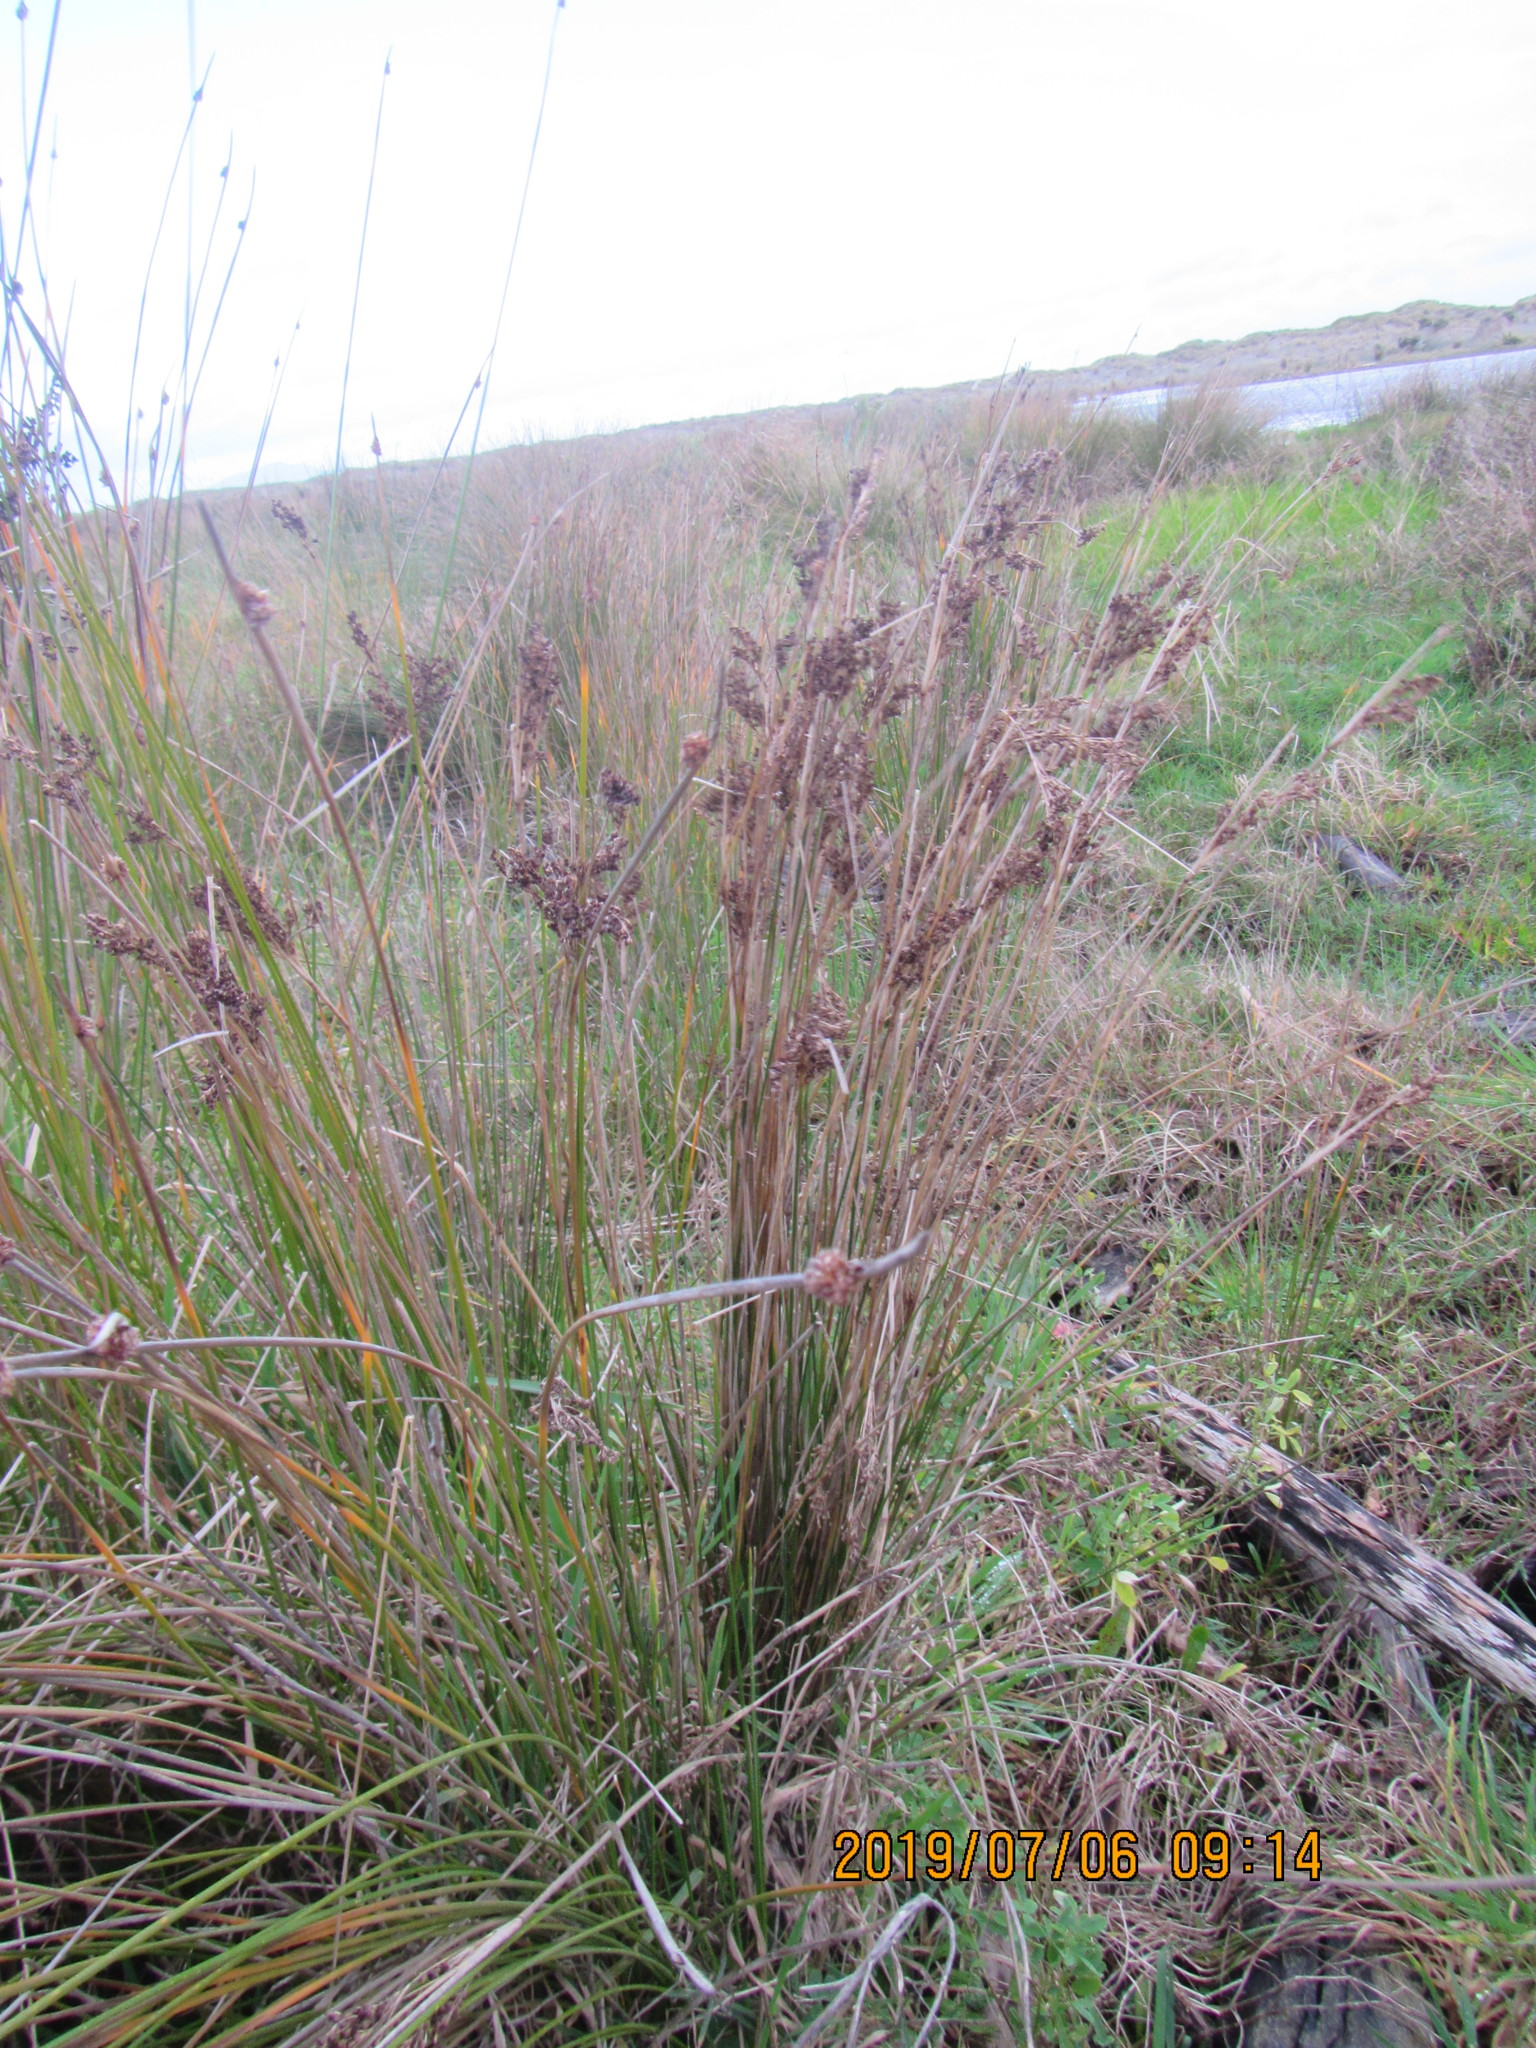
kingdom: Plantae
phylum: Tracheophyta
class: Liliopsida
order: Poales
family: Juncaceae
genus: Juncus
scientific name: Juncus kraussii
